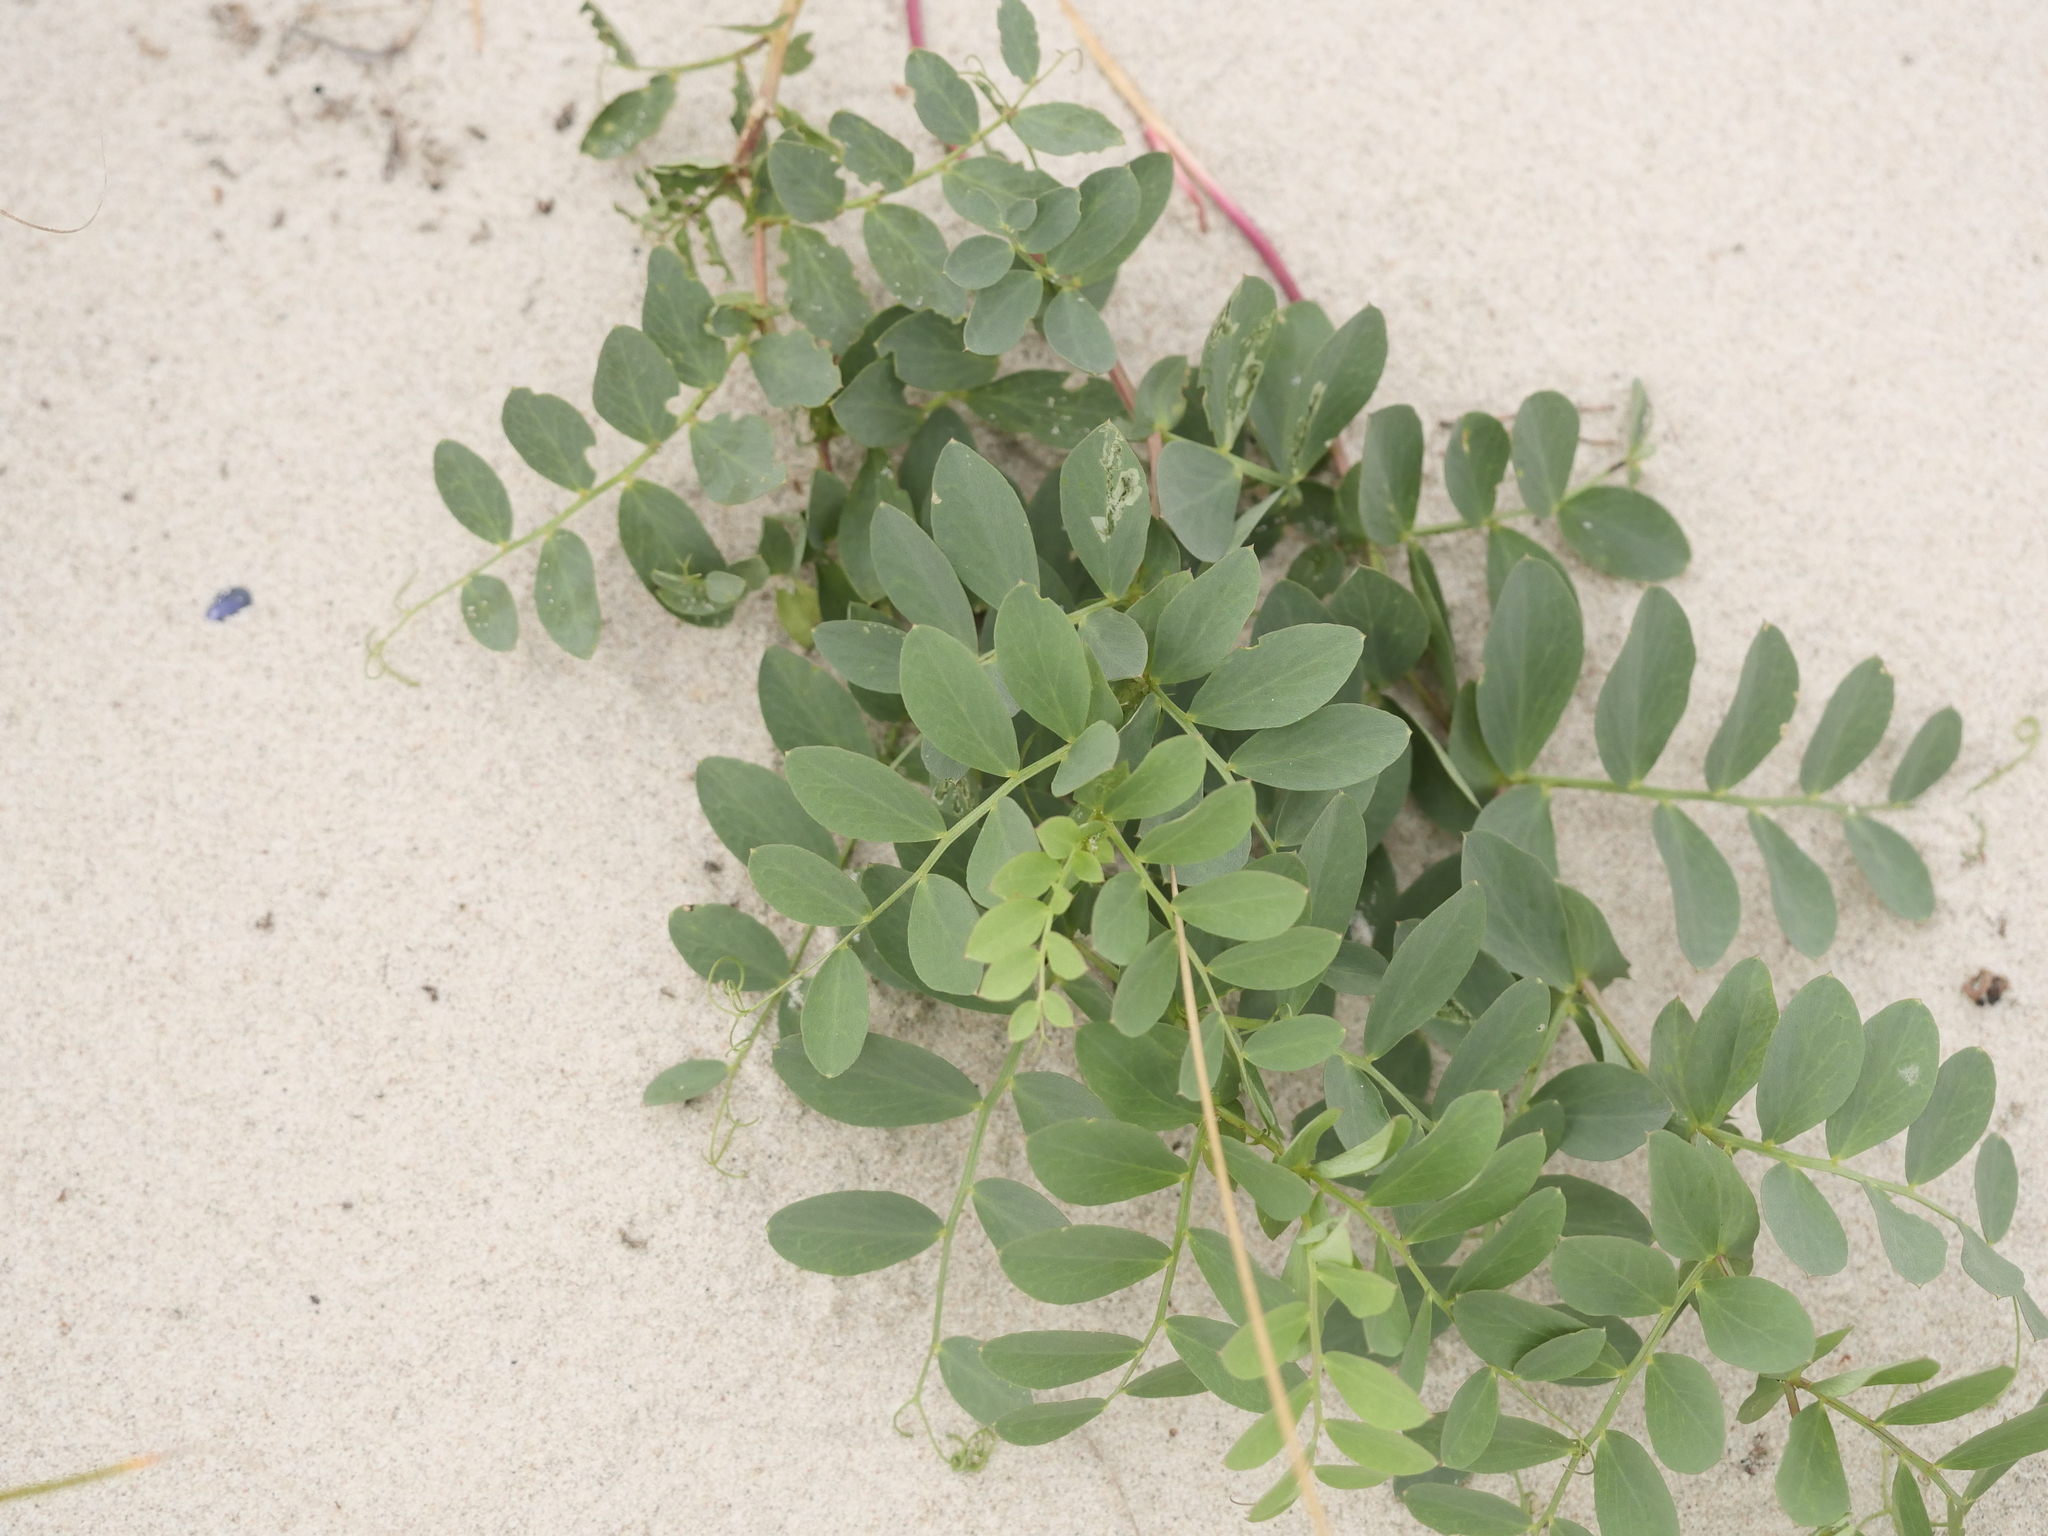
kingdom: Plantae
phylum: Tracheophyta
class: Magnoliopsida
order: Fabales
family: Fabaceae
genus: Lathyrus
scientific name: Lathyrus japonicus
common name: Sea pea
